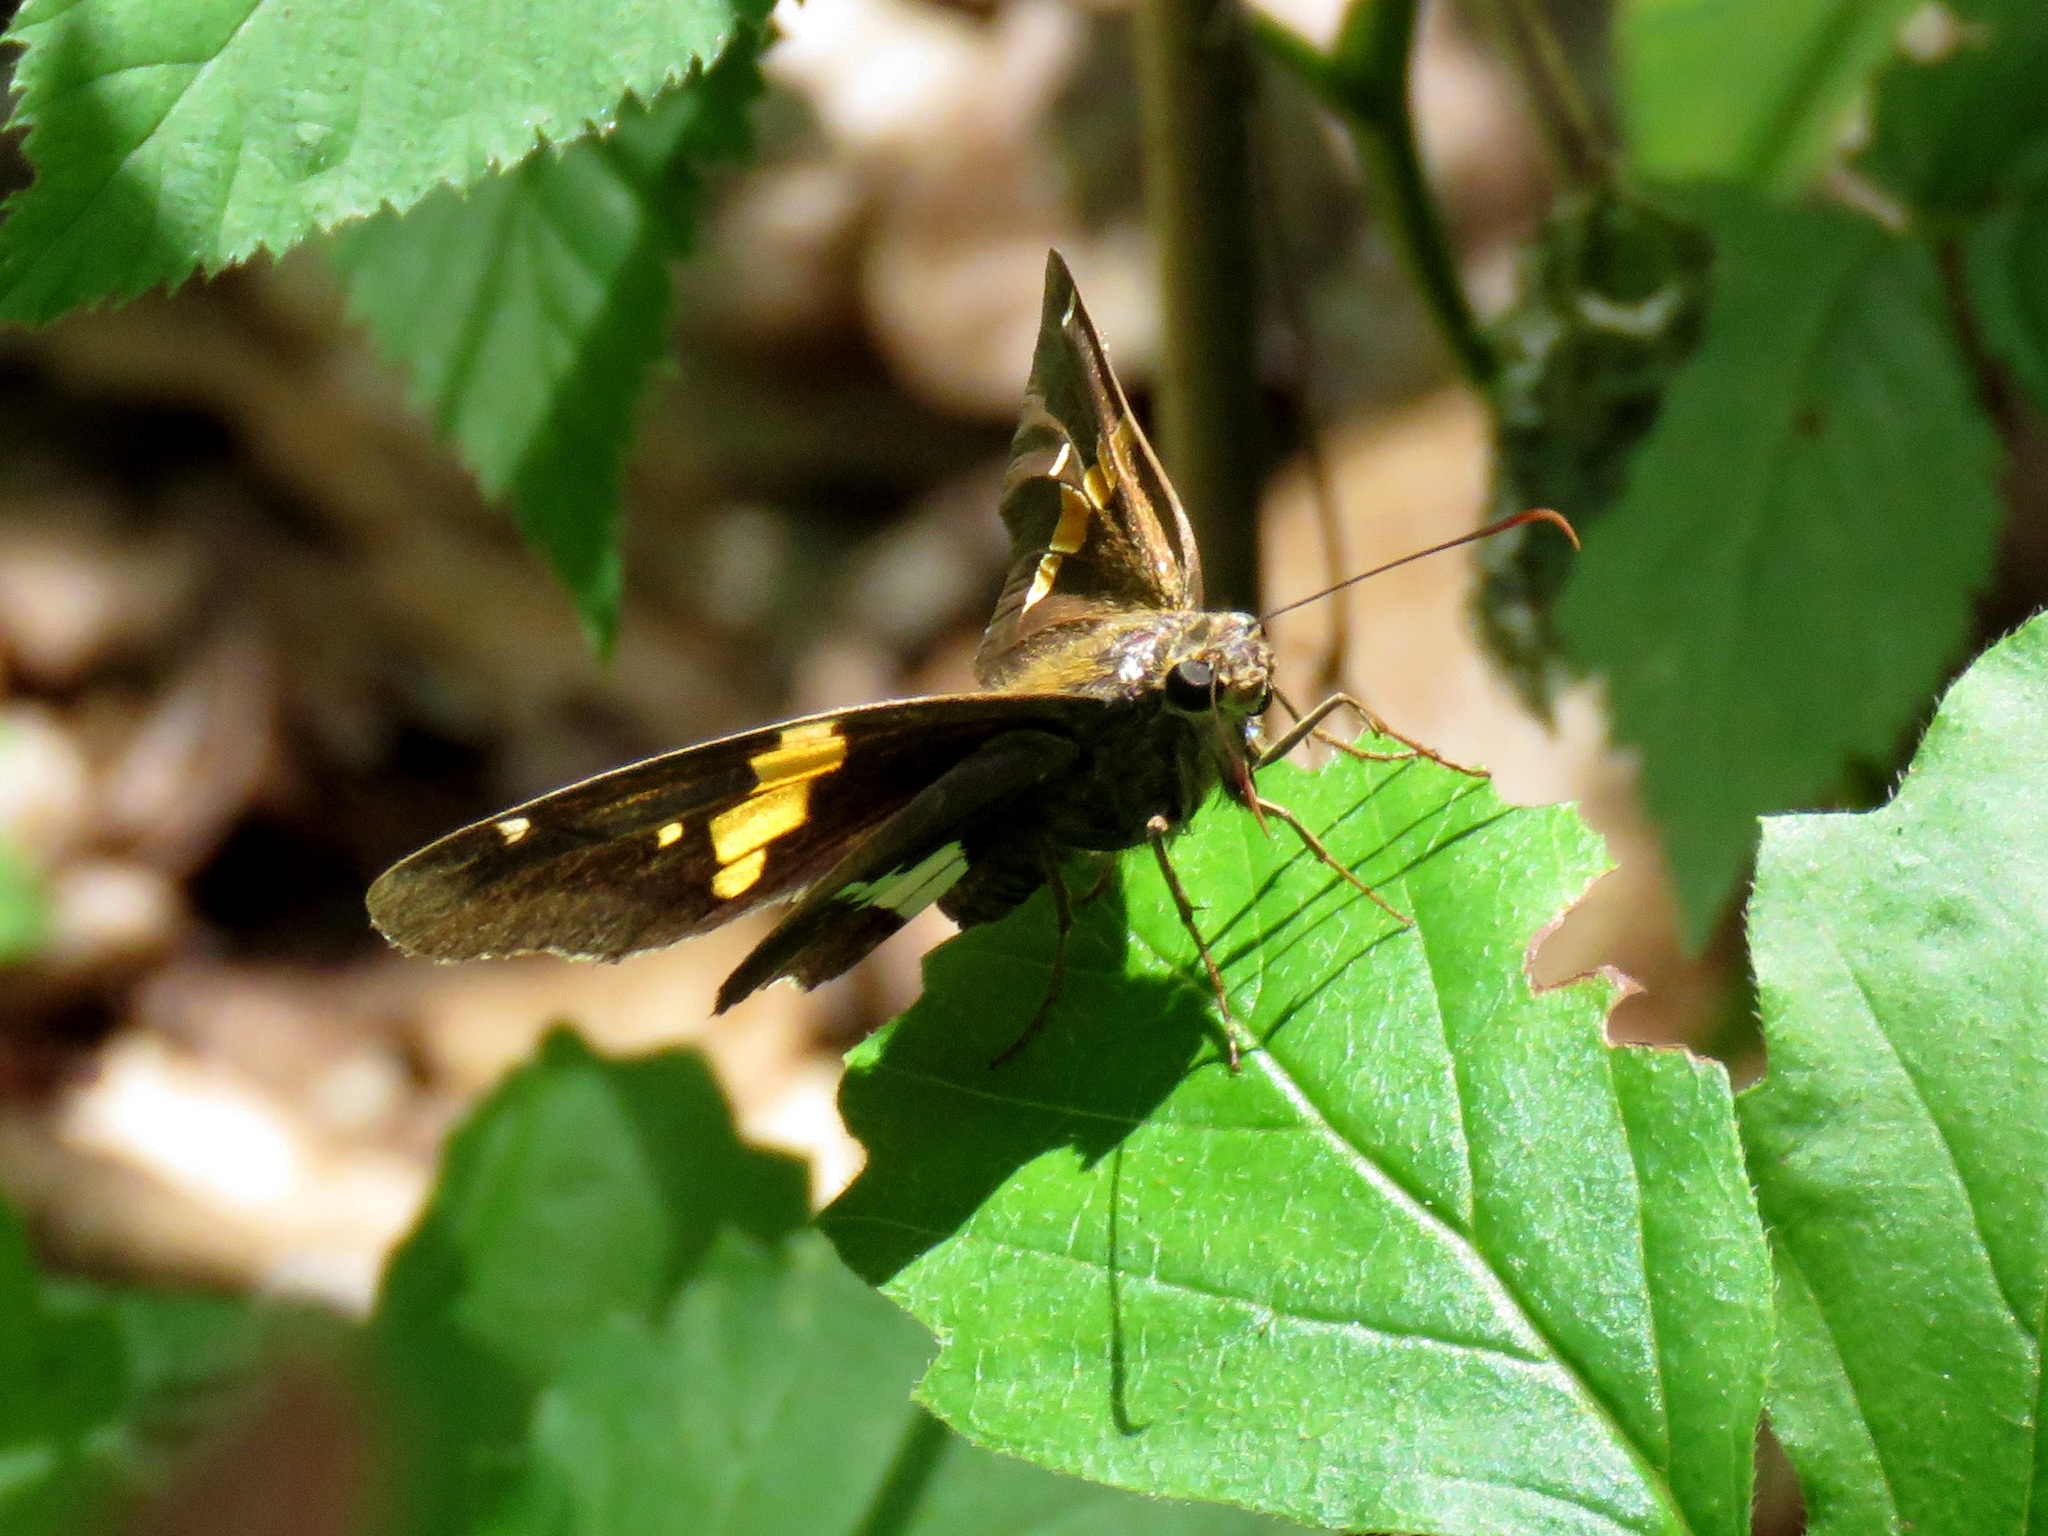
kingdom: Animalia
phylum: Arthropoda
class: Insecta
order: Lepidoptera
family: Hesperiidae
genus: Epargyreus
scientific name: Epargyreus clarus
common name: Silver-spotted skipper
